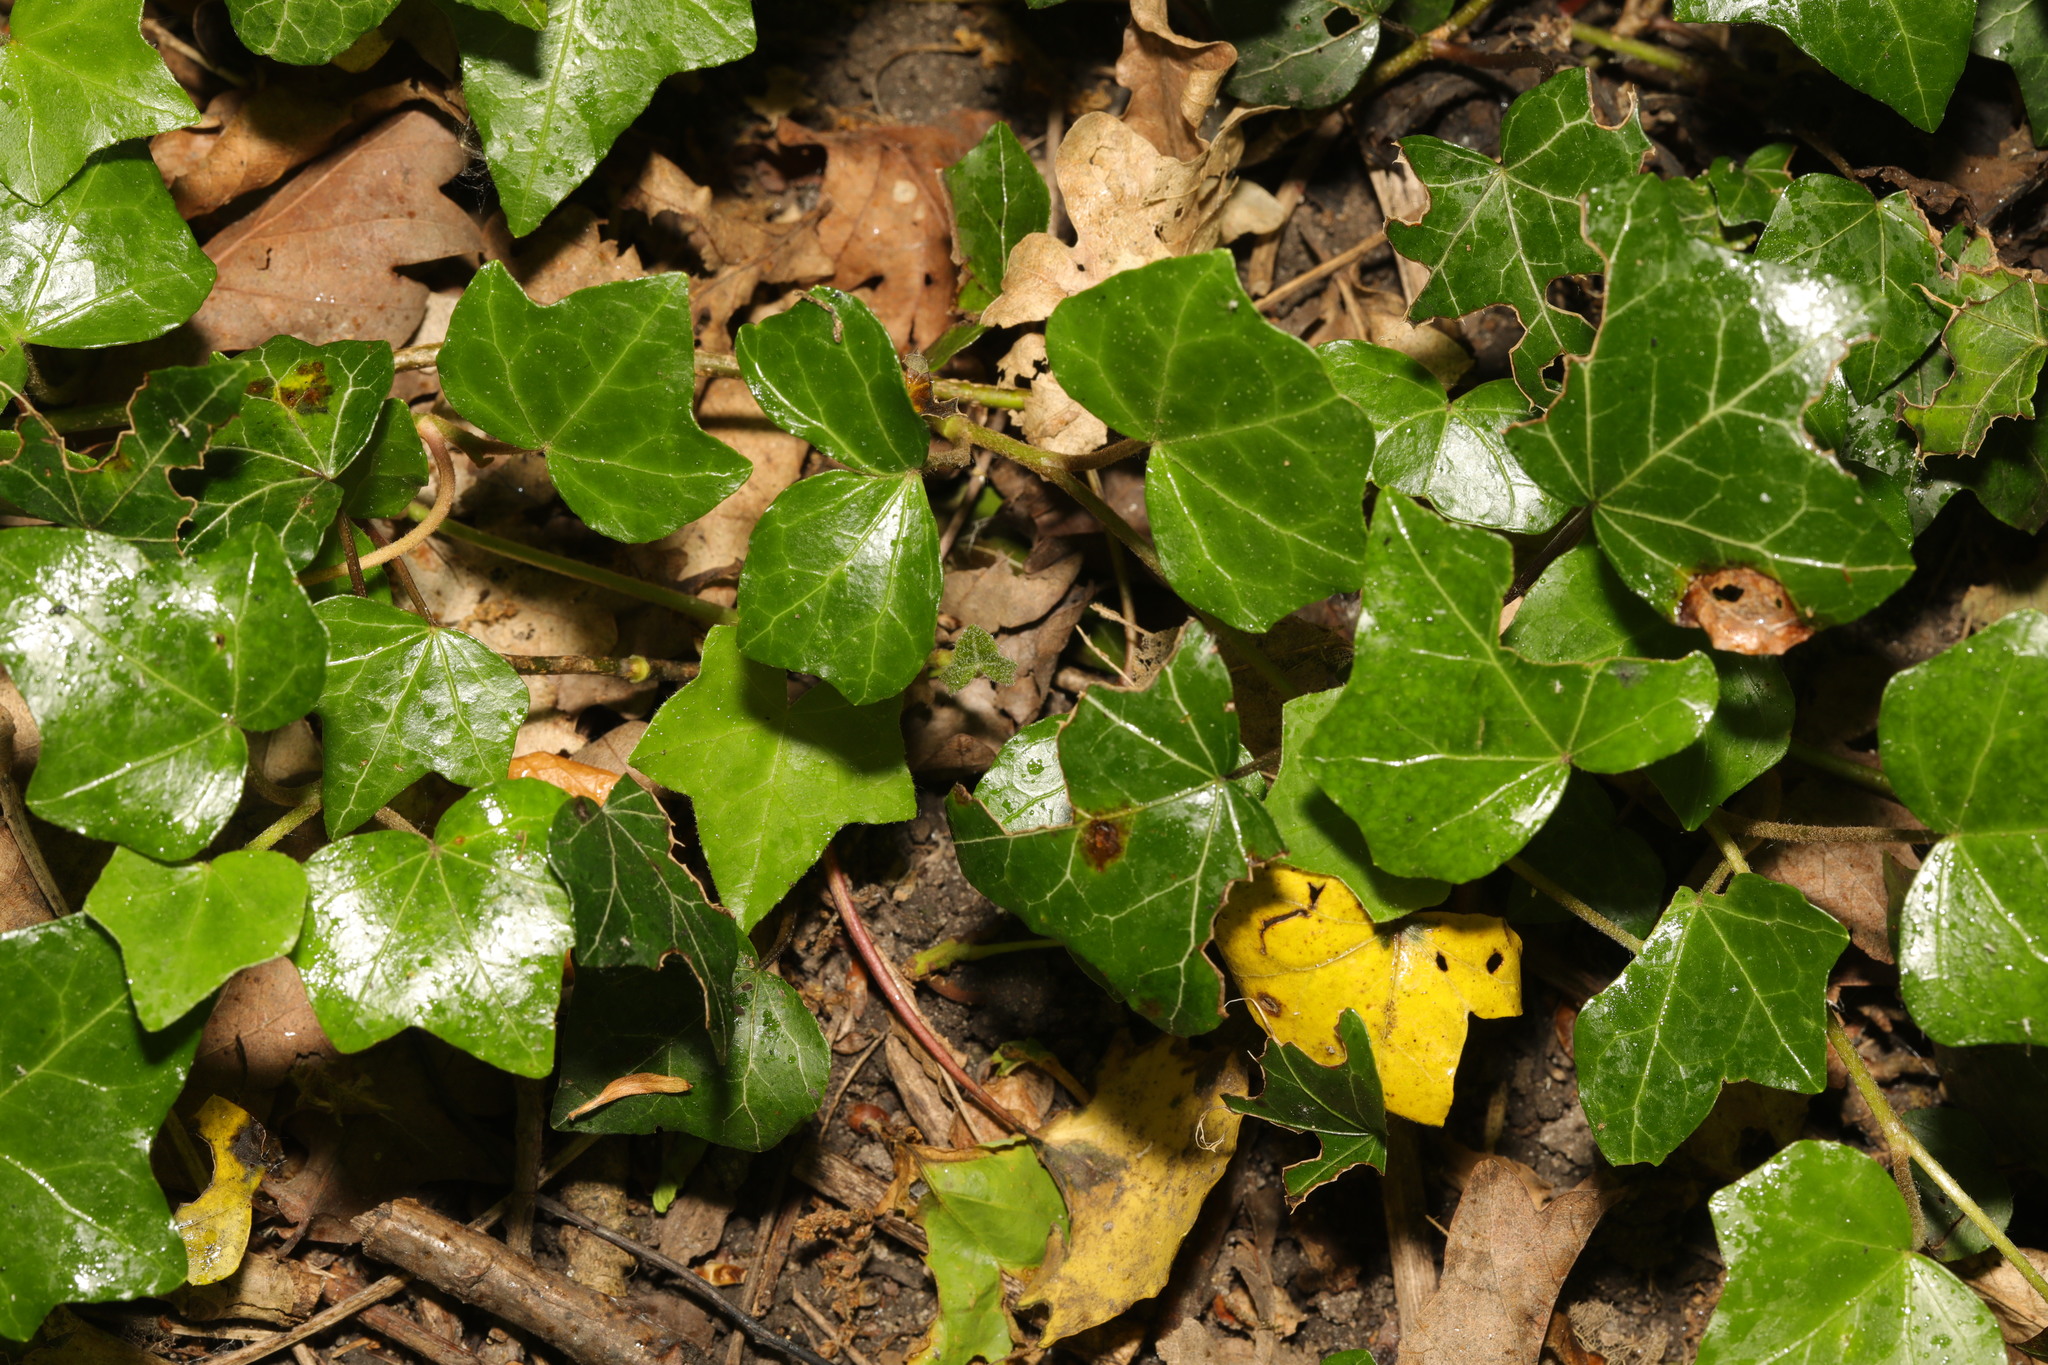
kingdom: Plantae
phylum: Tracheophyta
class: Magnoliopsida
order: Apiales
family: Araliaceae
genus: Hedera
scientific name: Hedera helix
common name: Ivy
